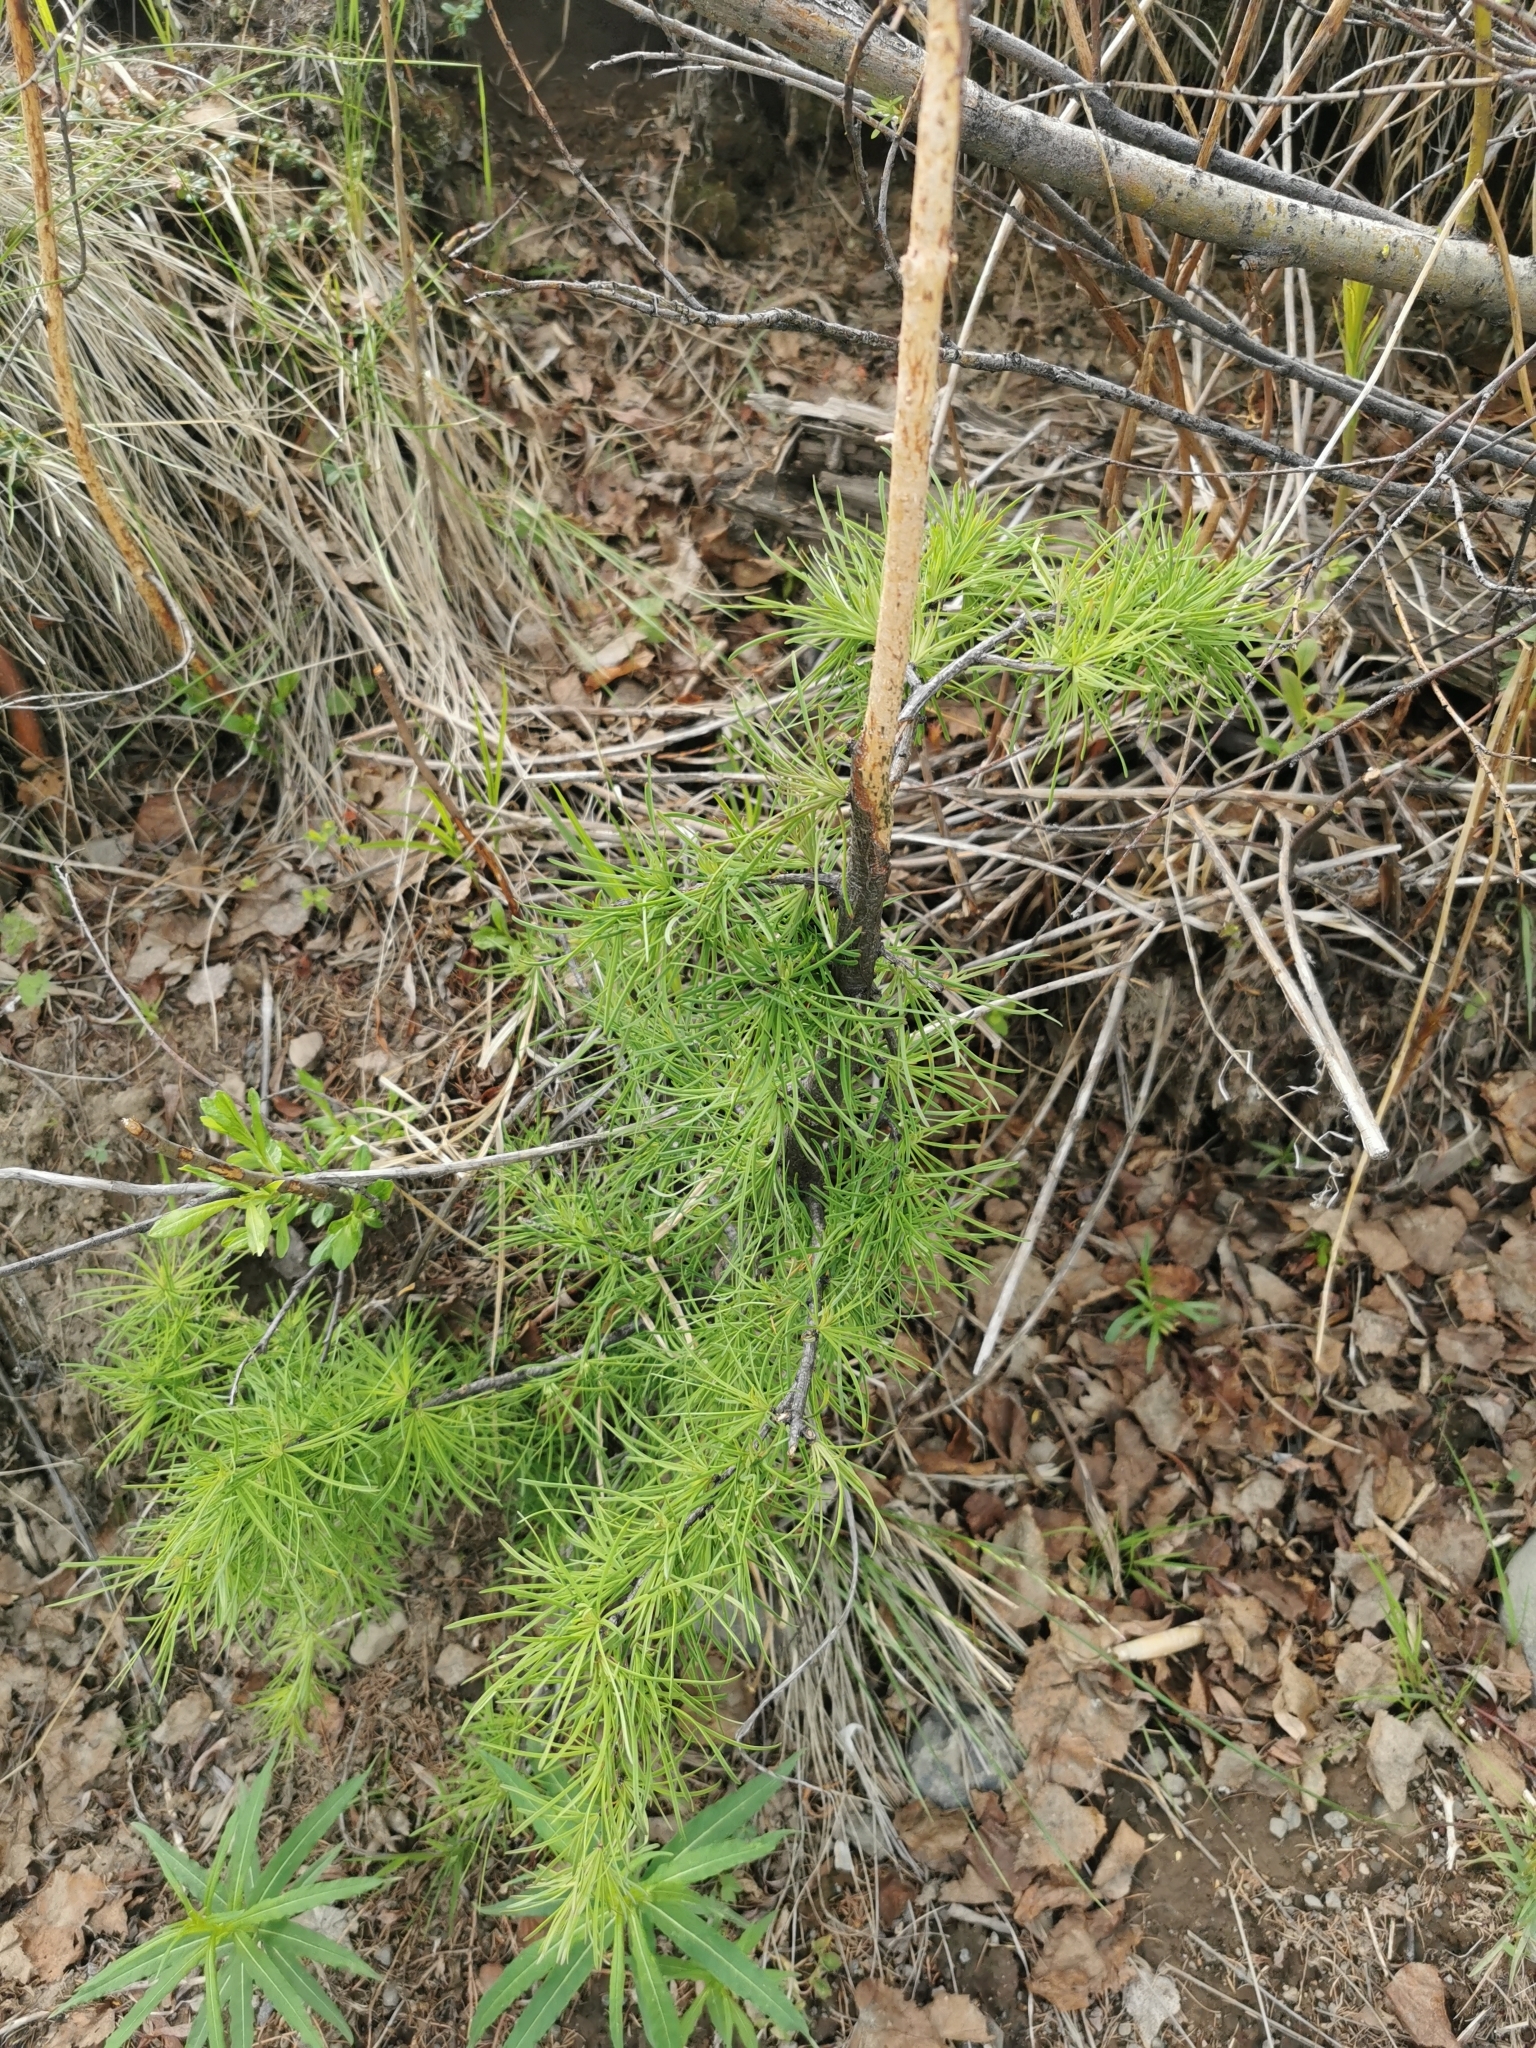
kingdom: Plantae
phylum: Tracheophyta
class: Pinopsida
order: Pinales
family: Pinaceae
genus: Larix
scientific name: Larix gmelinii
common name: Dahurian larch
